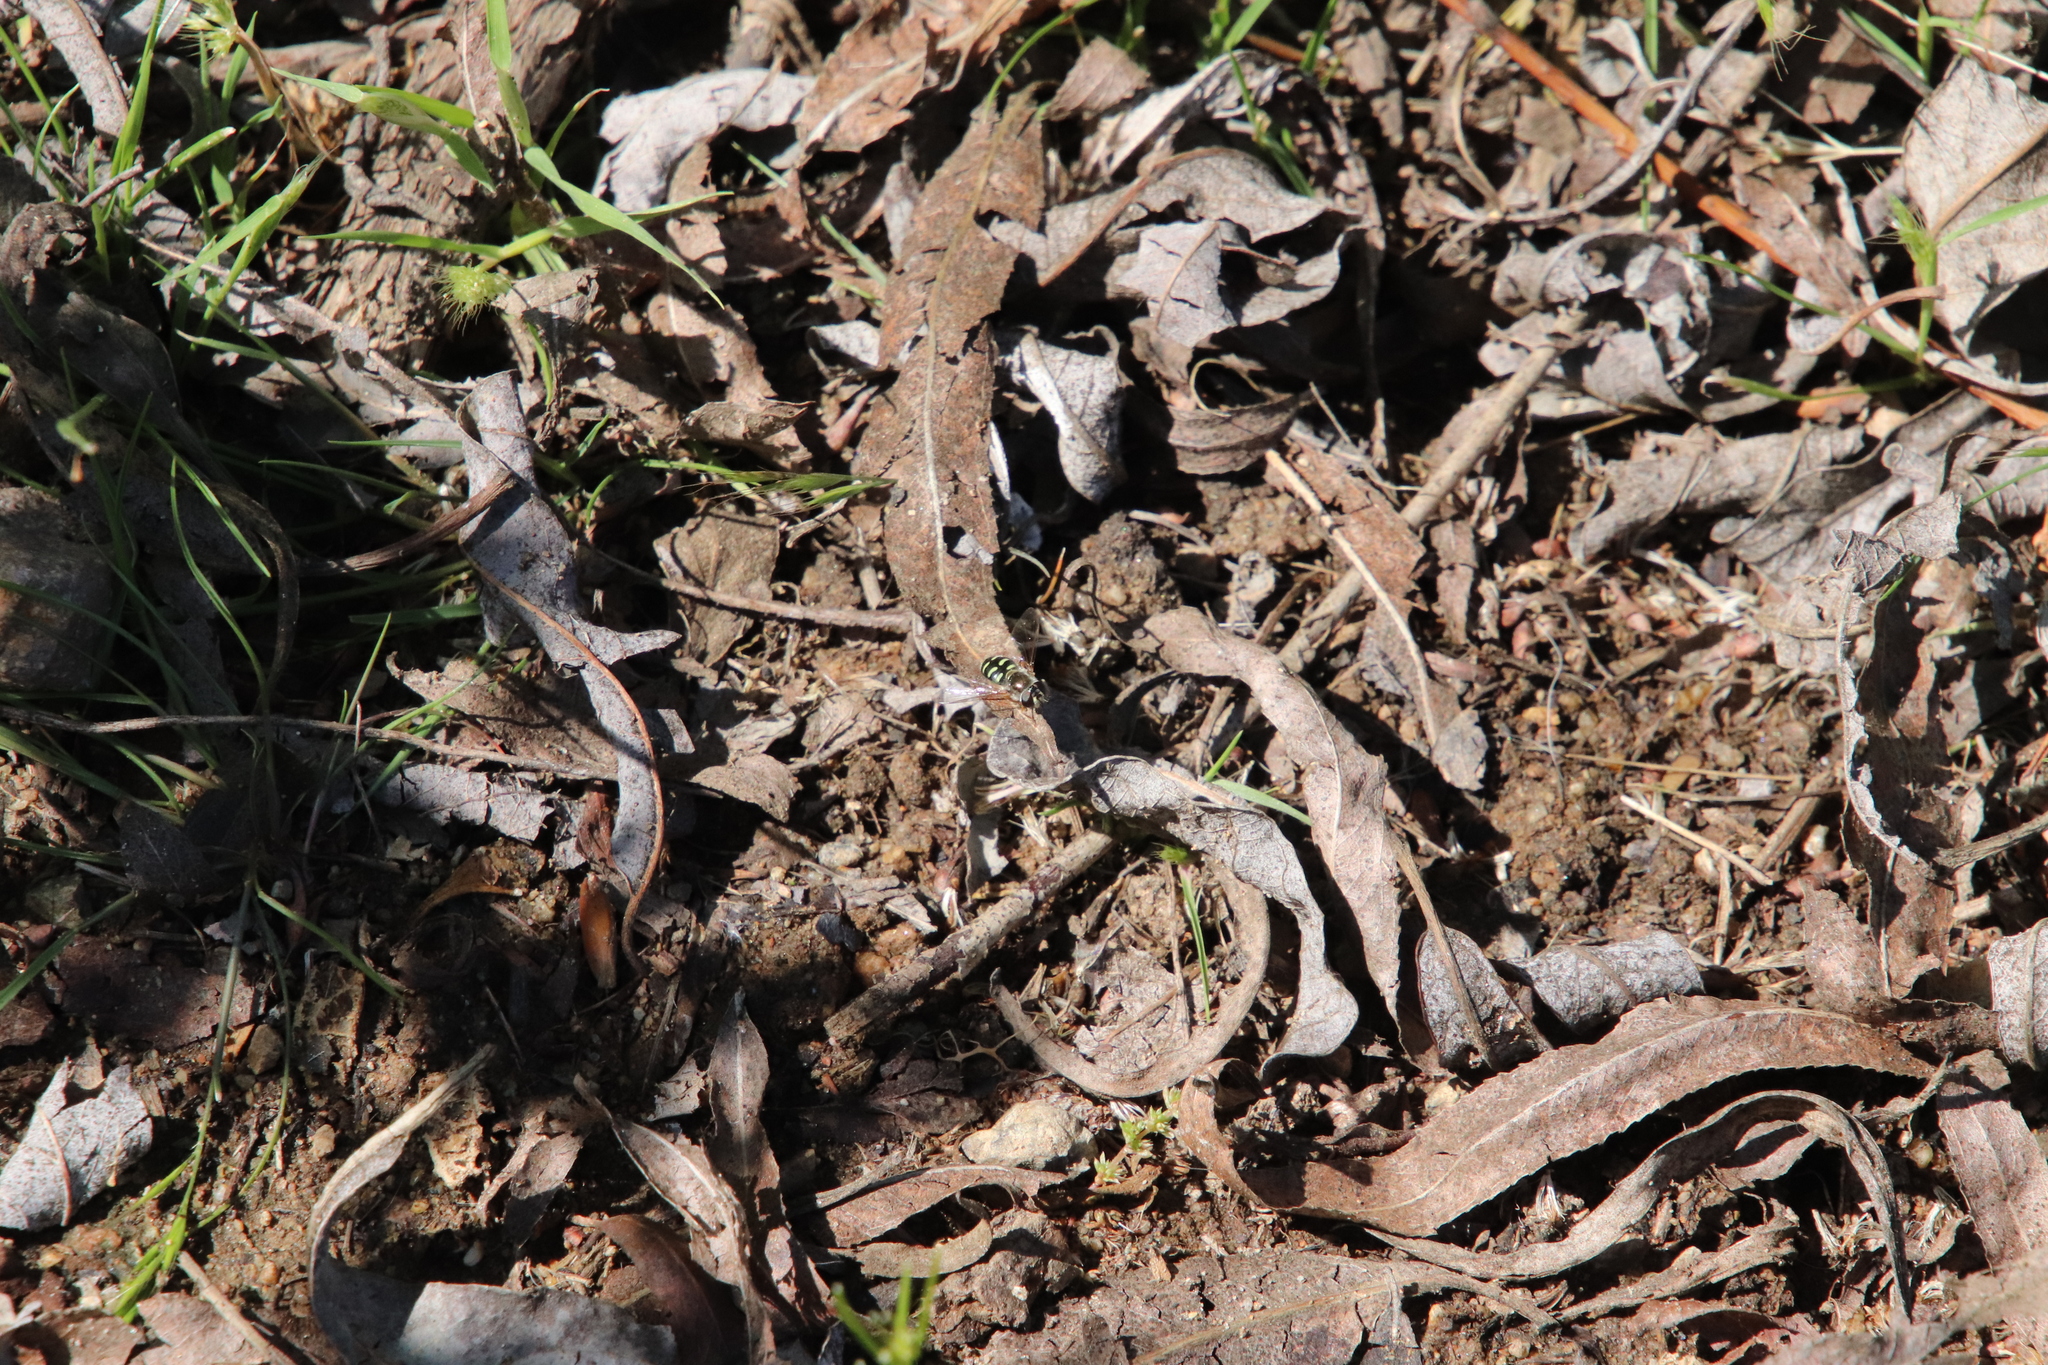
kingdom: Animalia
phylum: Arthropoda
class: Insecta
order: Diptera
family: Syrphidae
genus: Eupeodes
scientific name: Eupeodes volucris
